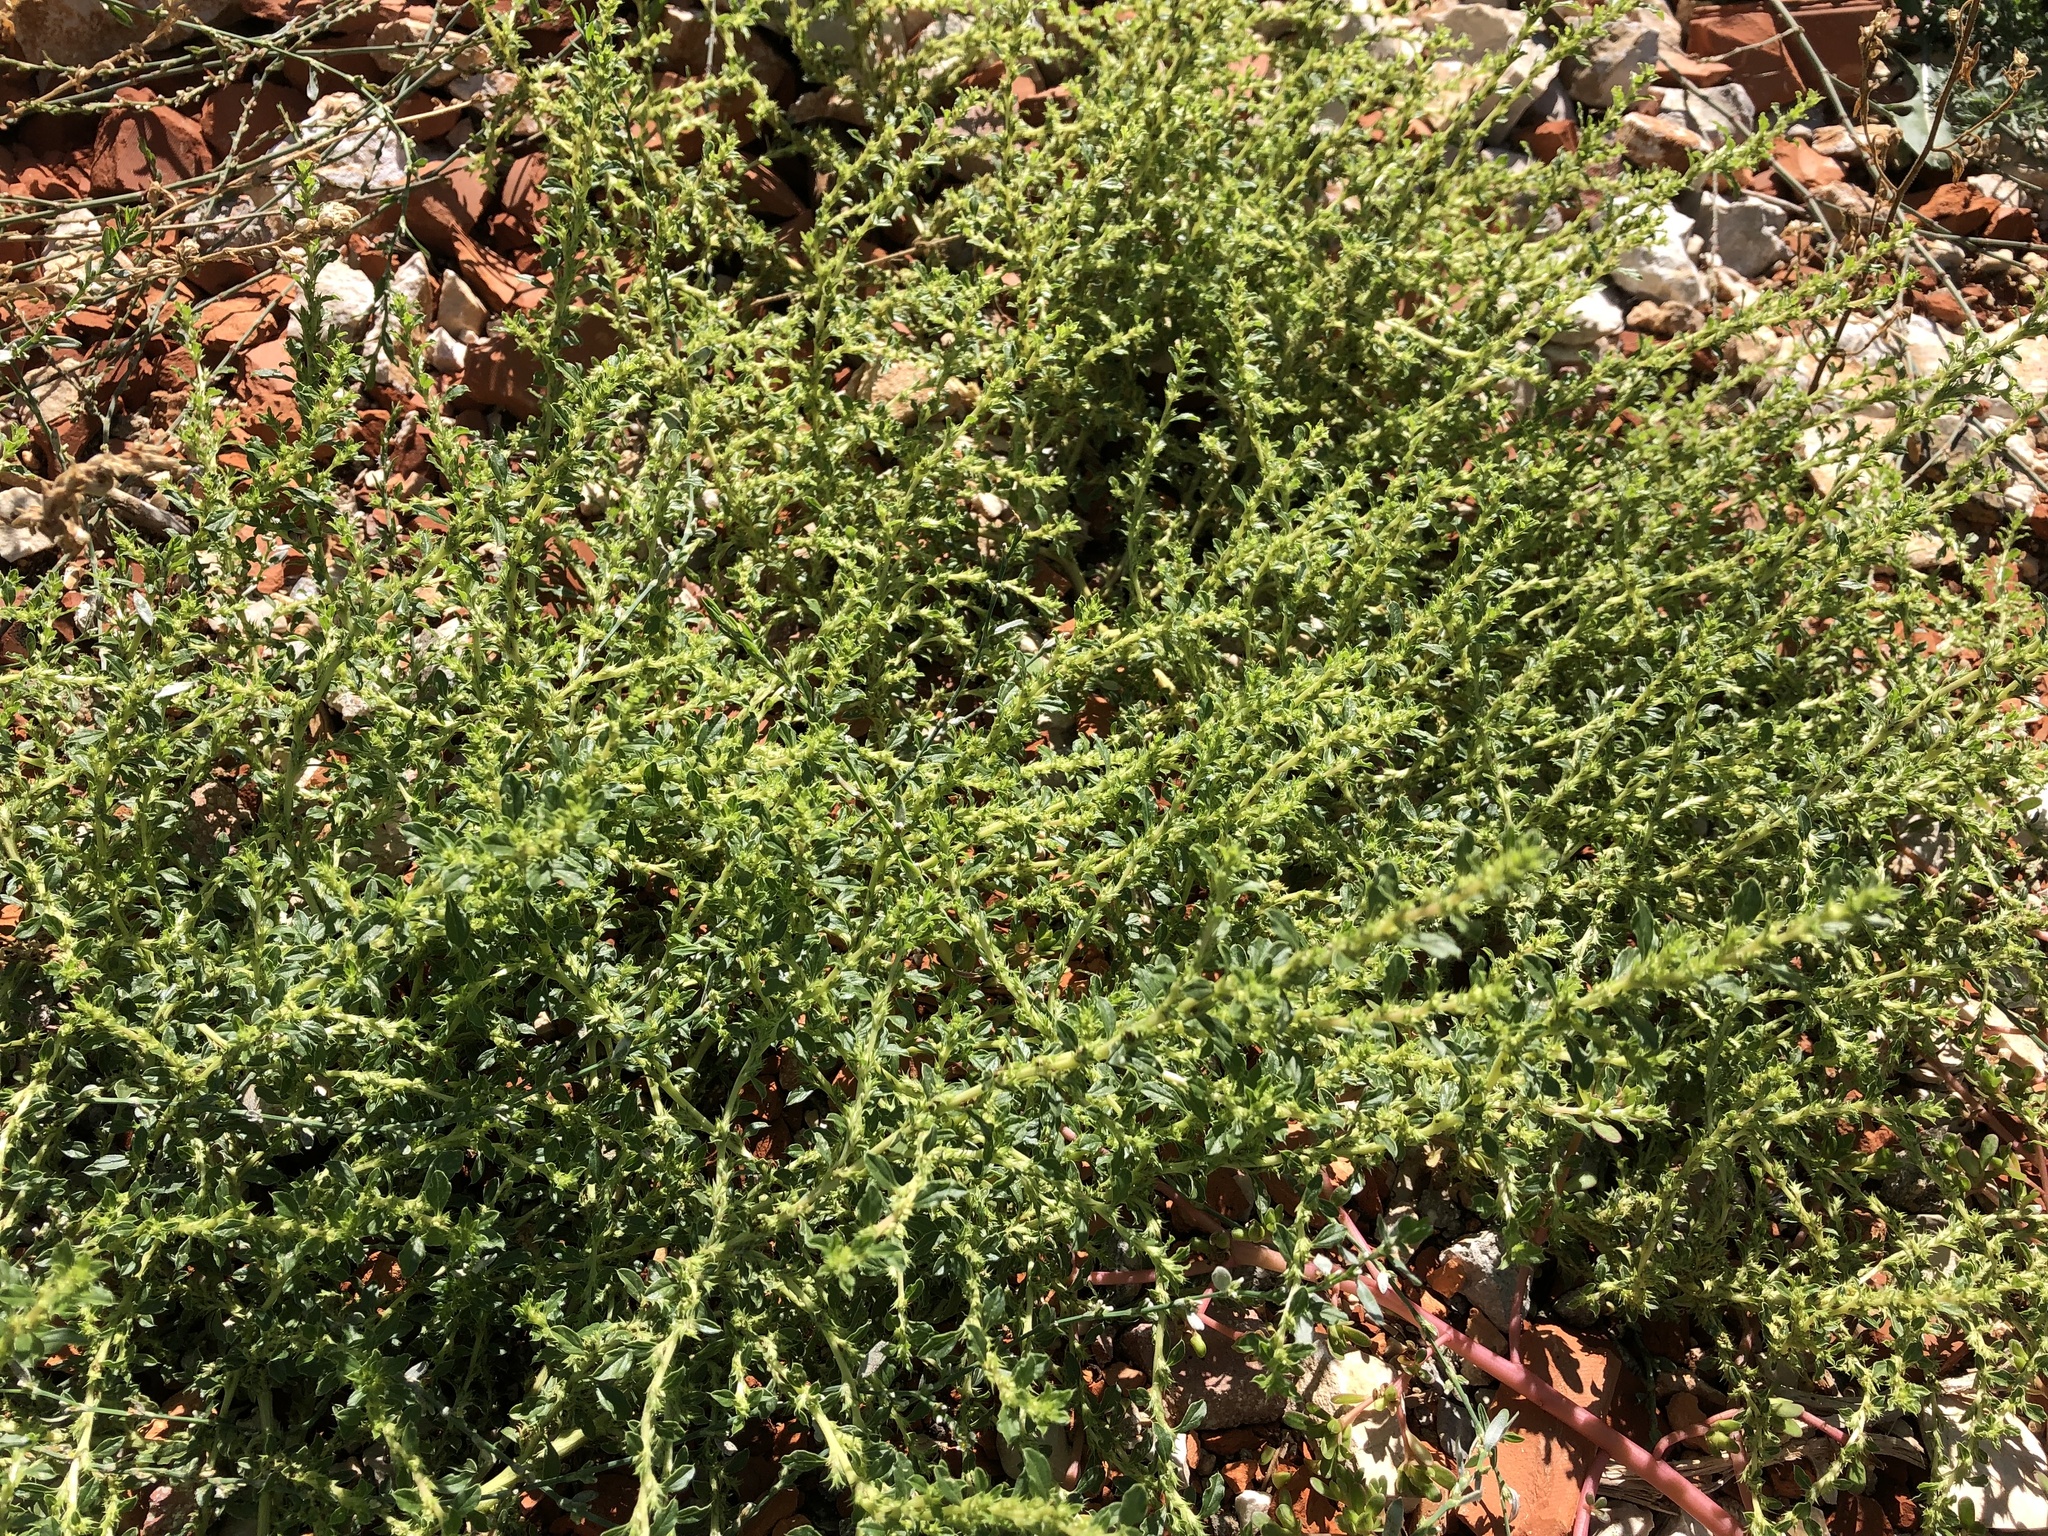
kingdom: Plantae
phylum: Tracheophyta
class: Magnoliopsida
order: Caryophyllales
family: Amaranthaceae
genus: Amaranthus
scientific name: Amaranthus albus
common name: White pigweed
